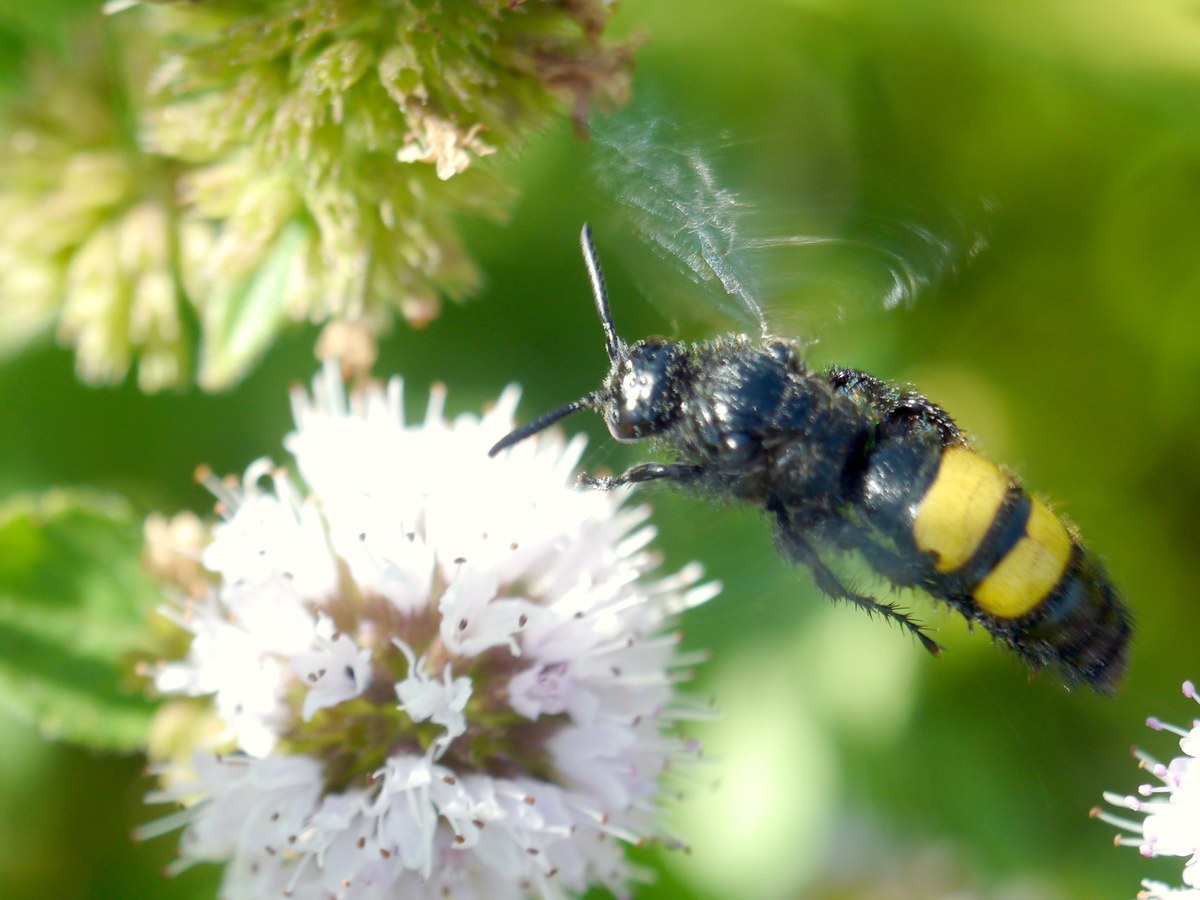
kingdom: Animalia
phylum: Arthropoda
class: Insecta
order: Hymenoptera
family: Scoliidae
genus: Scolia
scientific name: Scolia hirta
